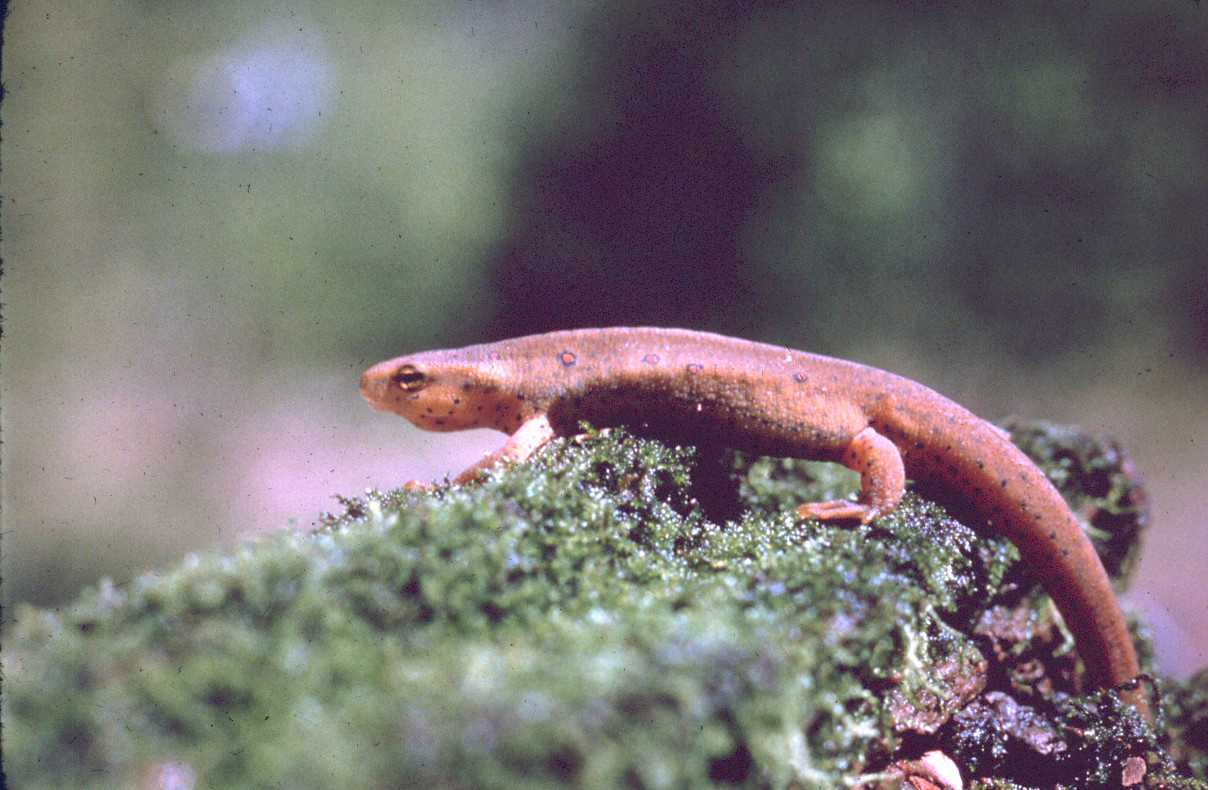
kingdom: Animalia
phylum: Chordata
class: Amphibia
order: Caudata
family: Salamandridae
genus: Notophthalmus
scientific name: Notophthalmus viridescens
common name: Eastern newt
